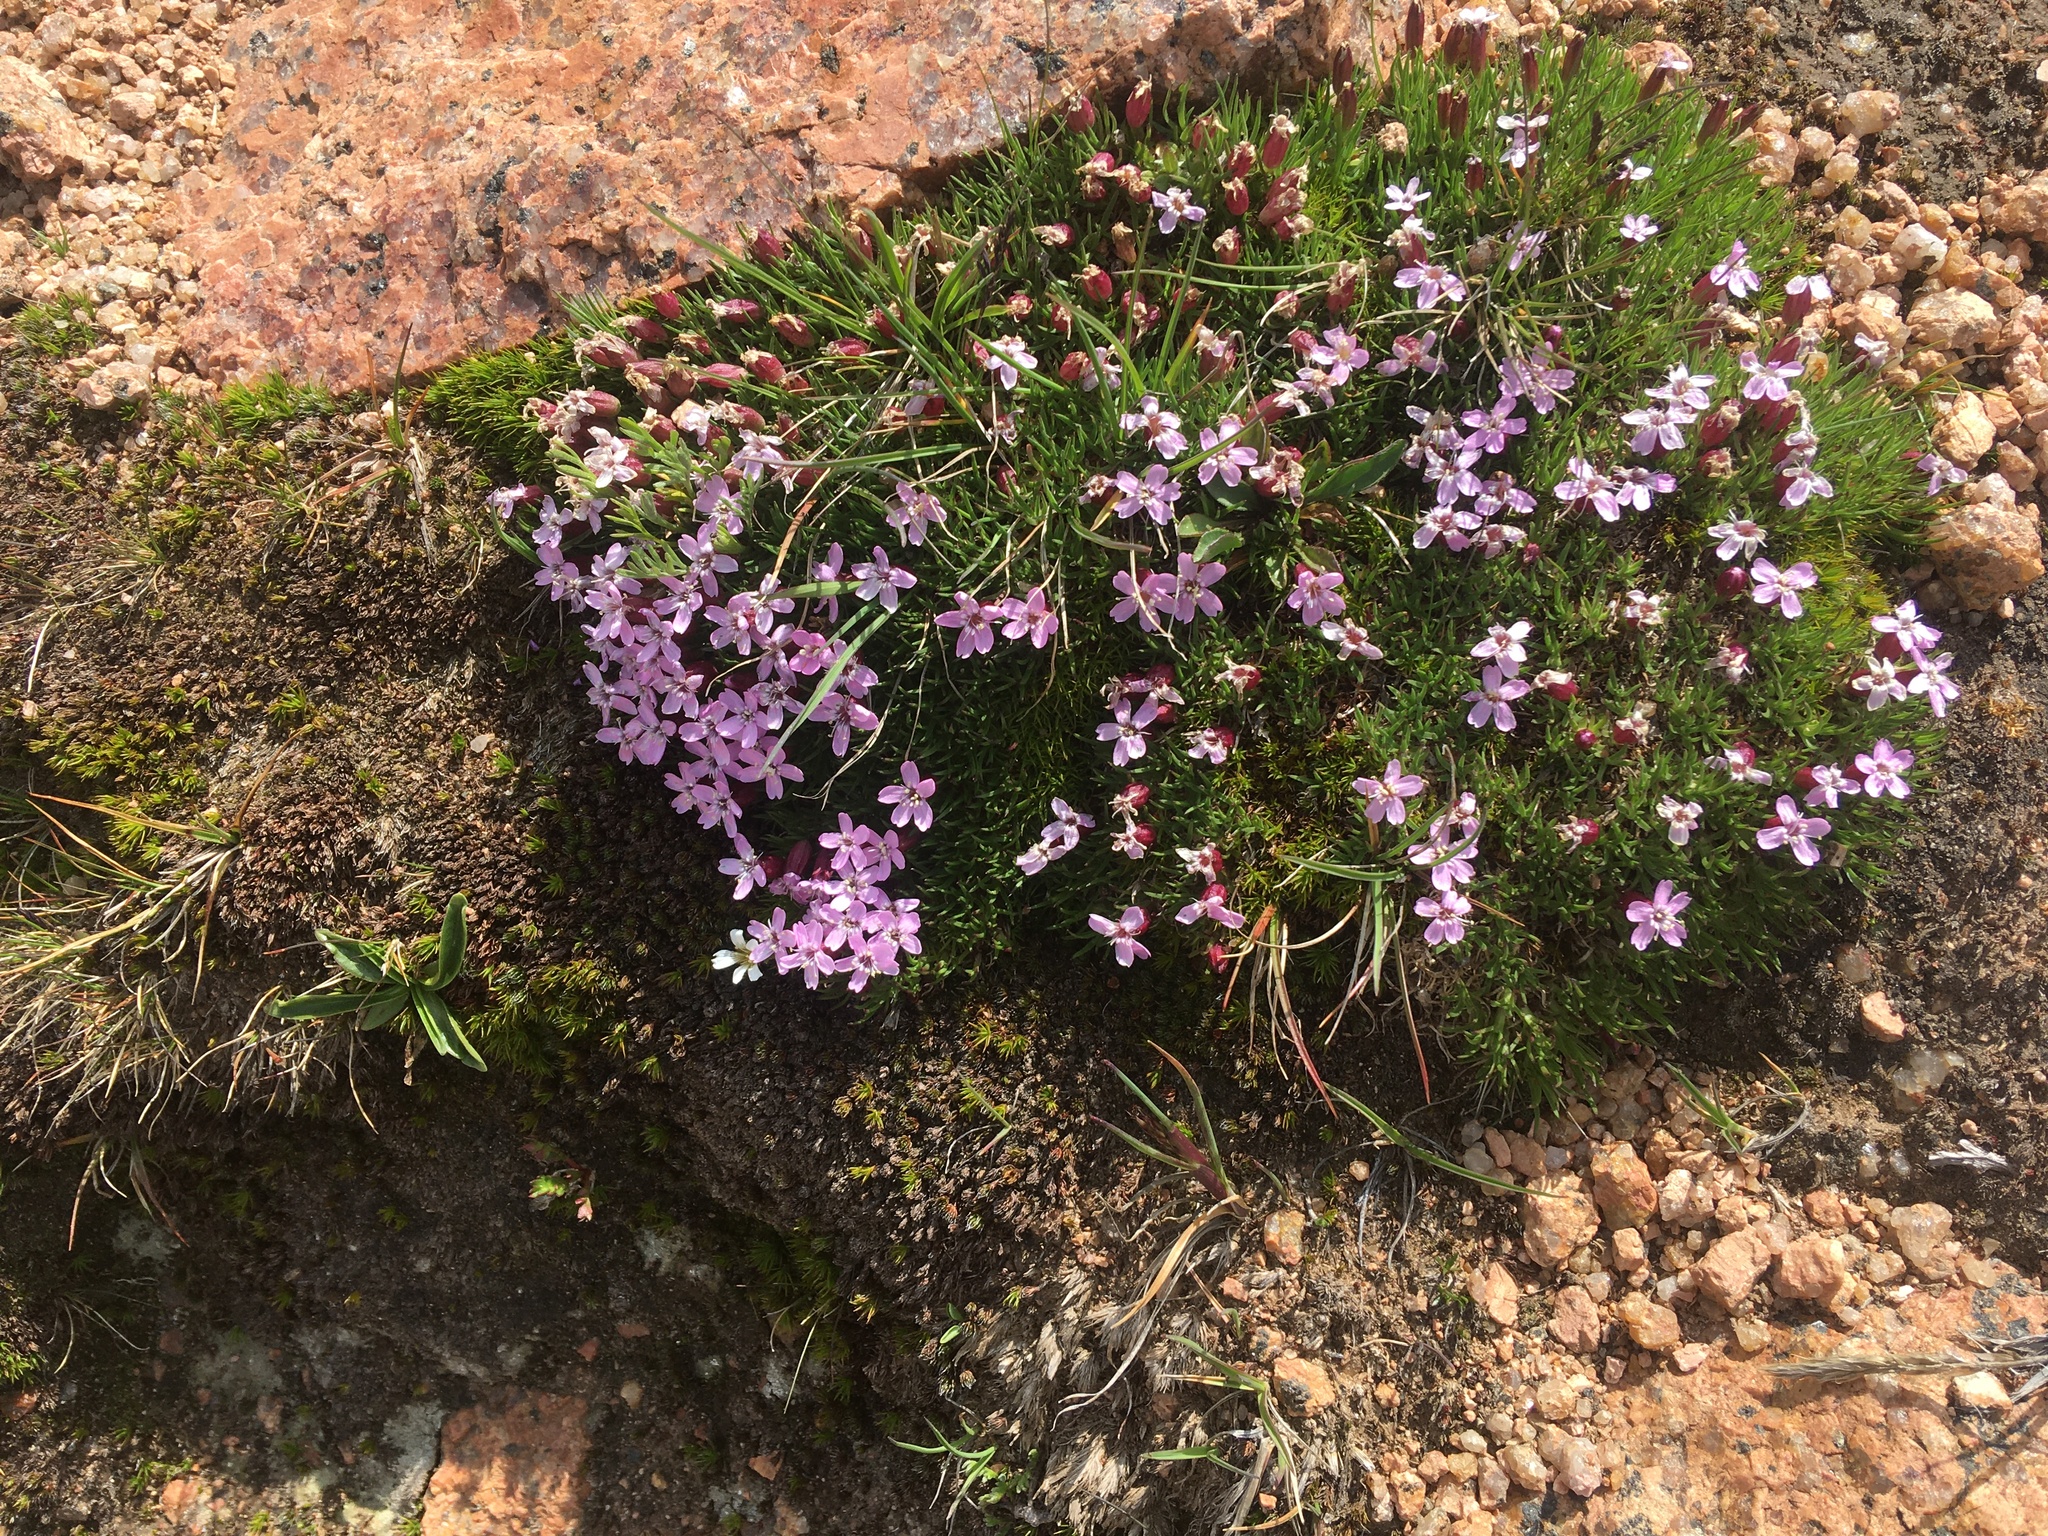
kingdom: Plantae
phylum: Tracheophyta
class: Magnoliopsida
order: Caryophyllales
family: Caryophyllaceae
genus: Silene
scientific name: Silene acaulis
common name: Moss campion
